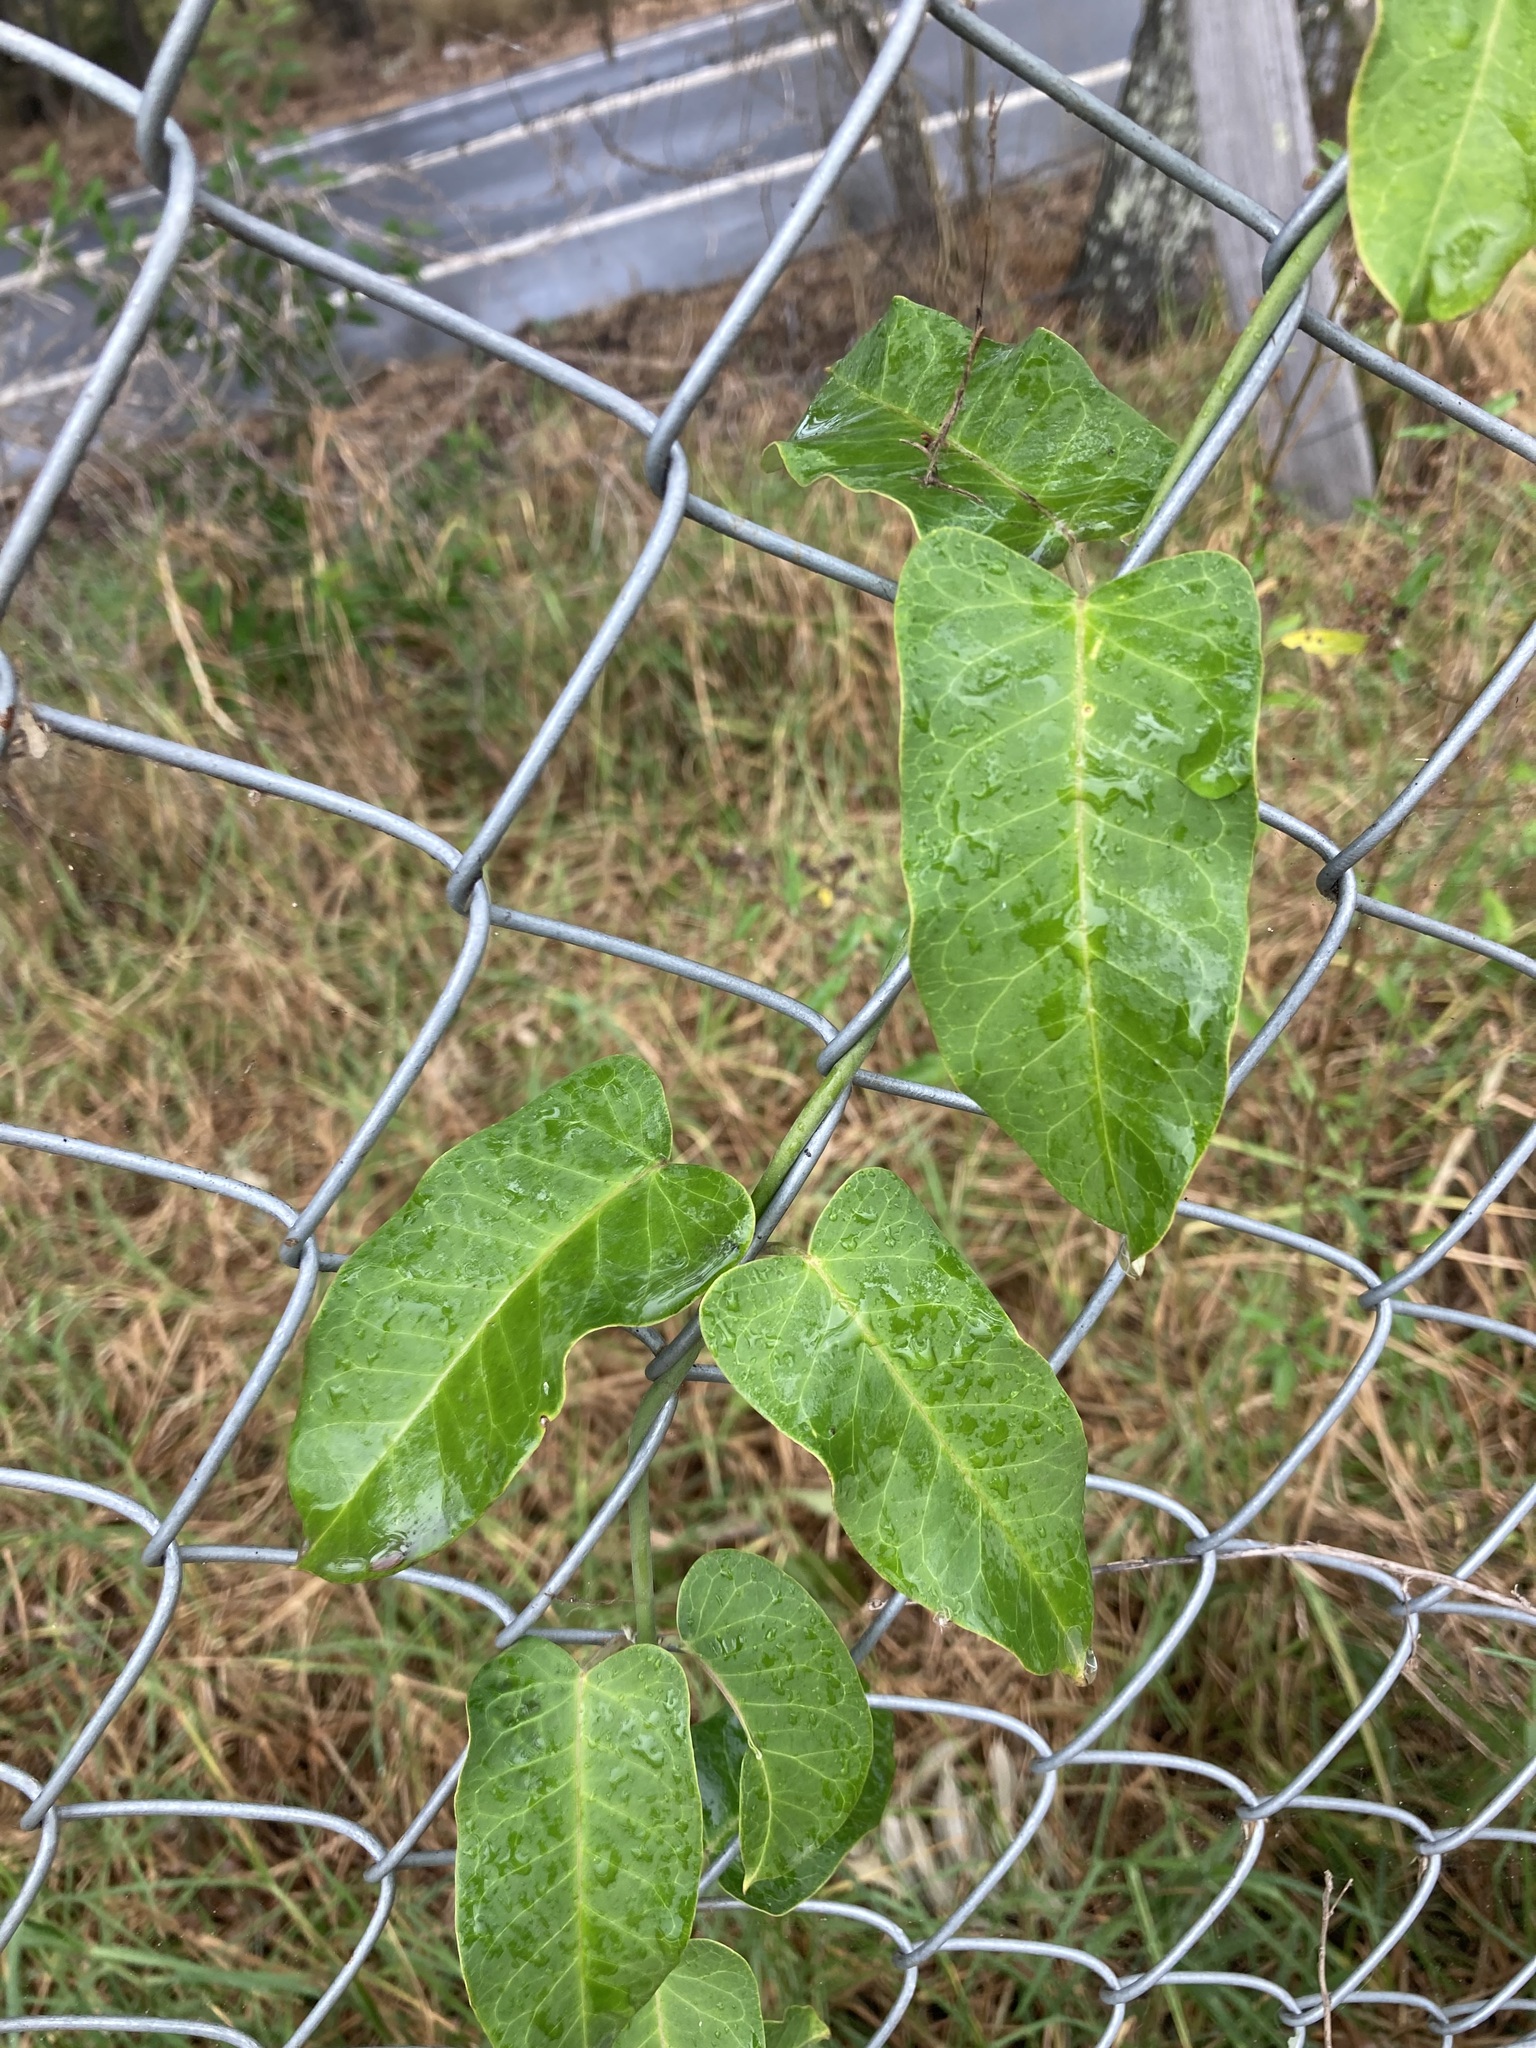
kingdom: Plantae
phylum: Tracheophyta
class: Magnoliopsida
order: Gentianales
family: Apocynaceae
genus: Araujia
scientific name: Araujia sericifera
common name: White bladderflower
